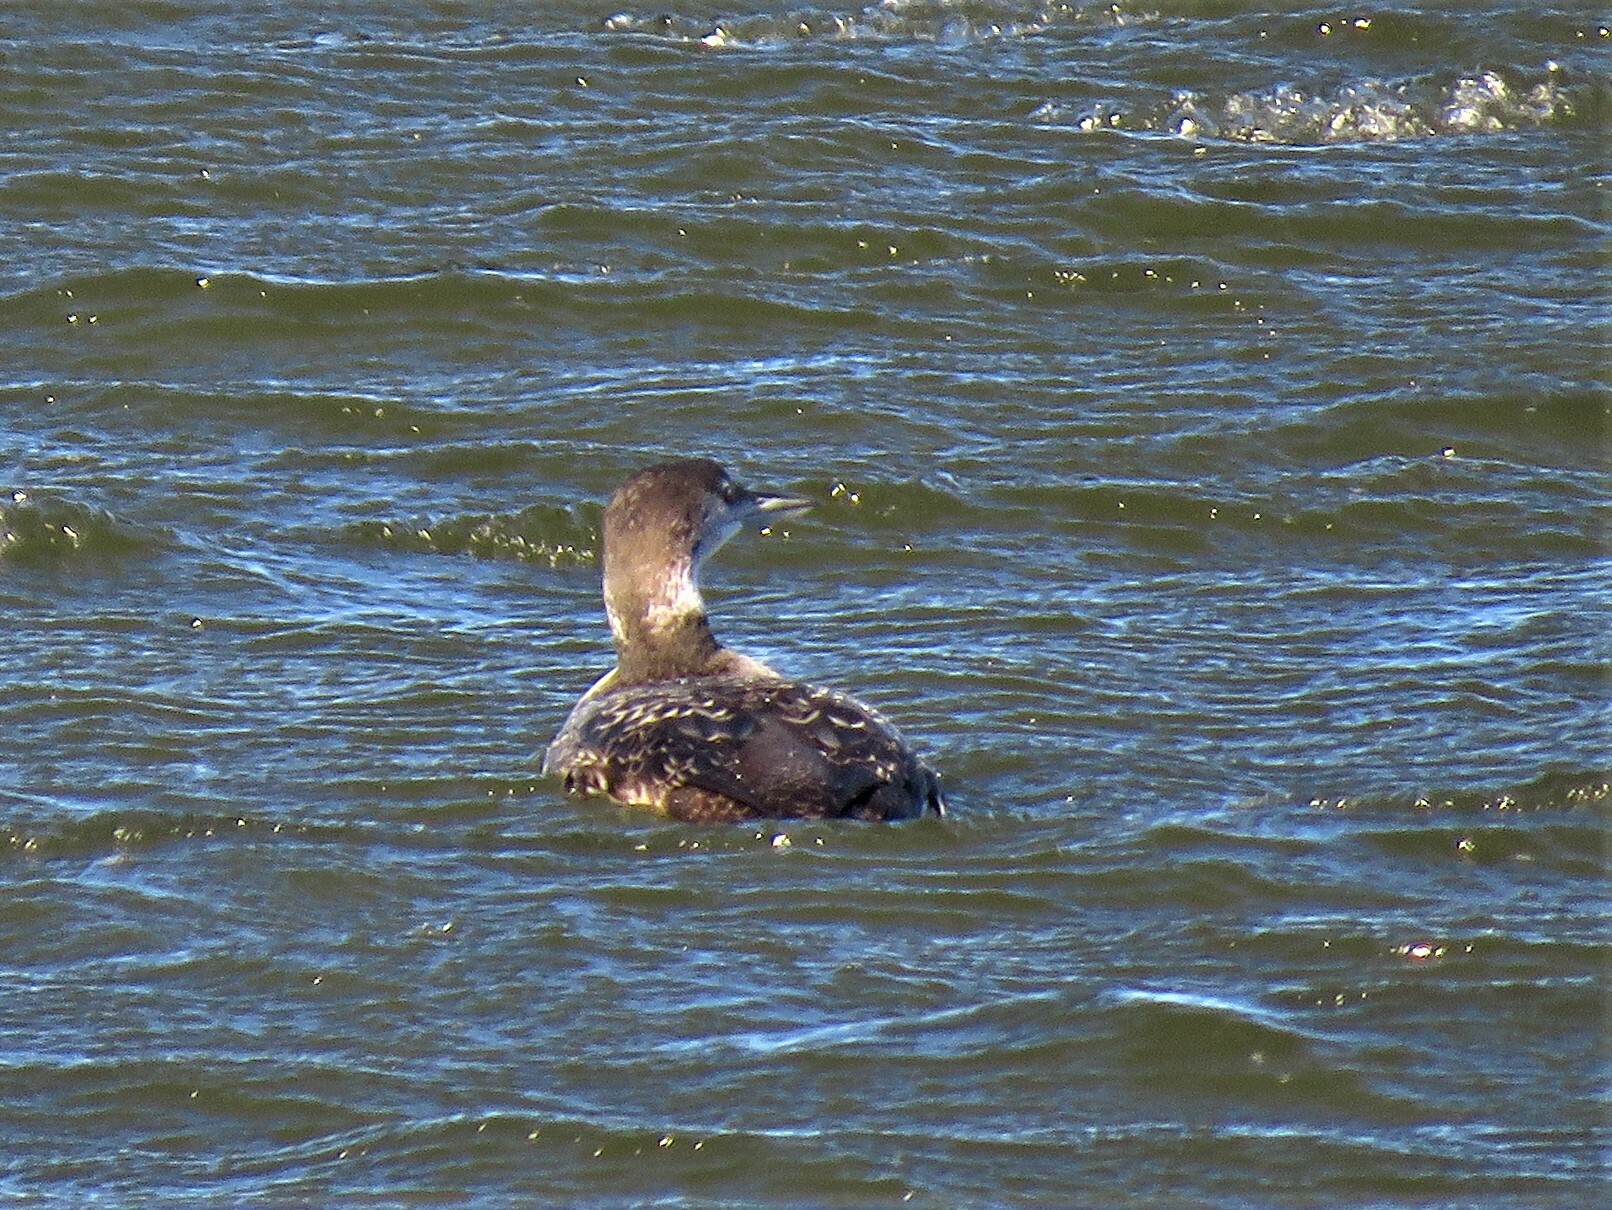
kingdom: Animalia
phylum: Chordata
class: Aves
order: Gaviiformes
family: Gaviidae
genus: Gavia
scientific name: Gavia immer
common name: Common loon
